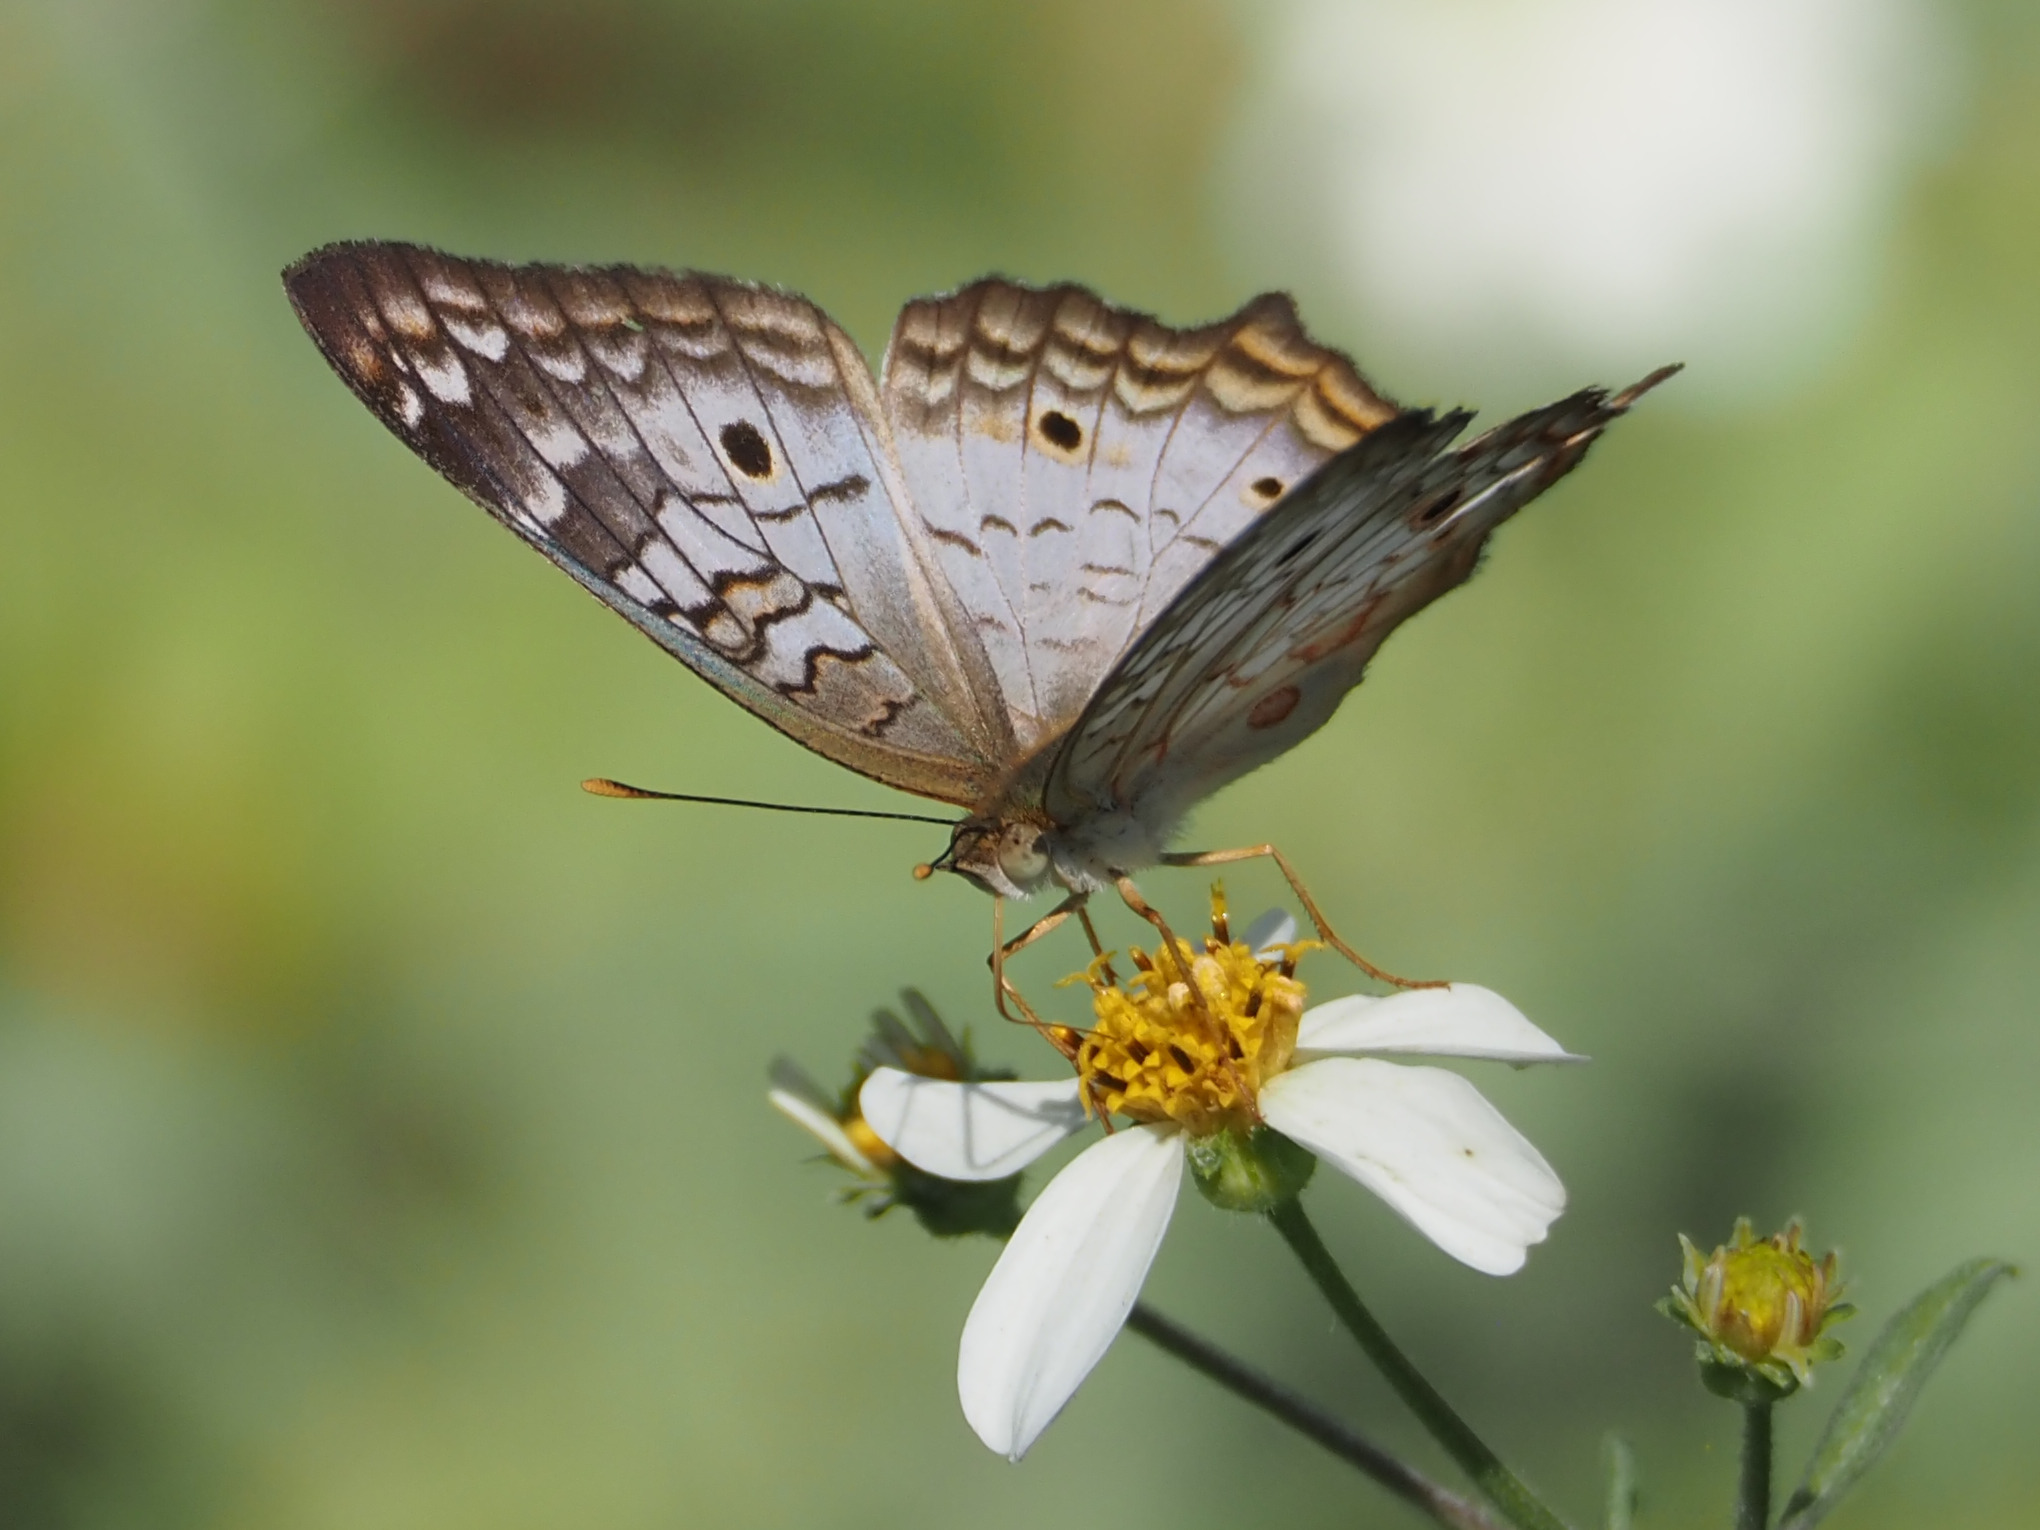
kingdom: Animalia
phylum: Arthropoda
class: Insecta
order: Lepidoptera
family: Nymphalidae
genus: Anartia
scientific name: Anartia jatrophae
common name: White peacock
